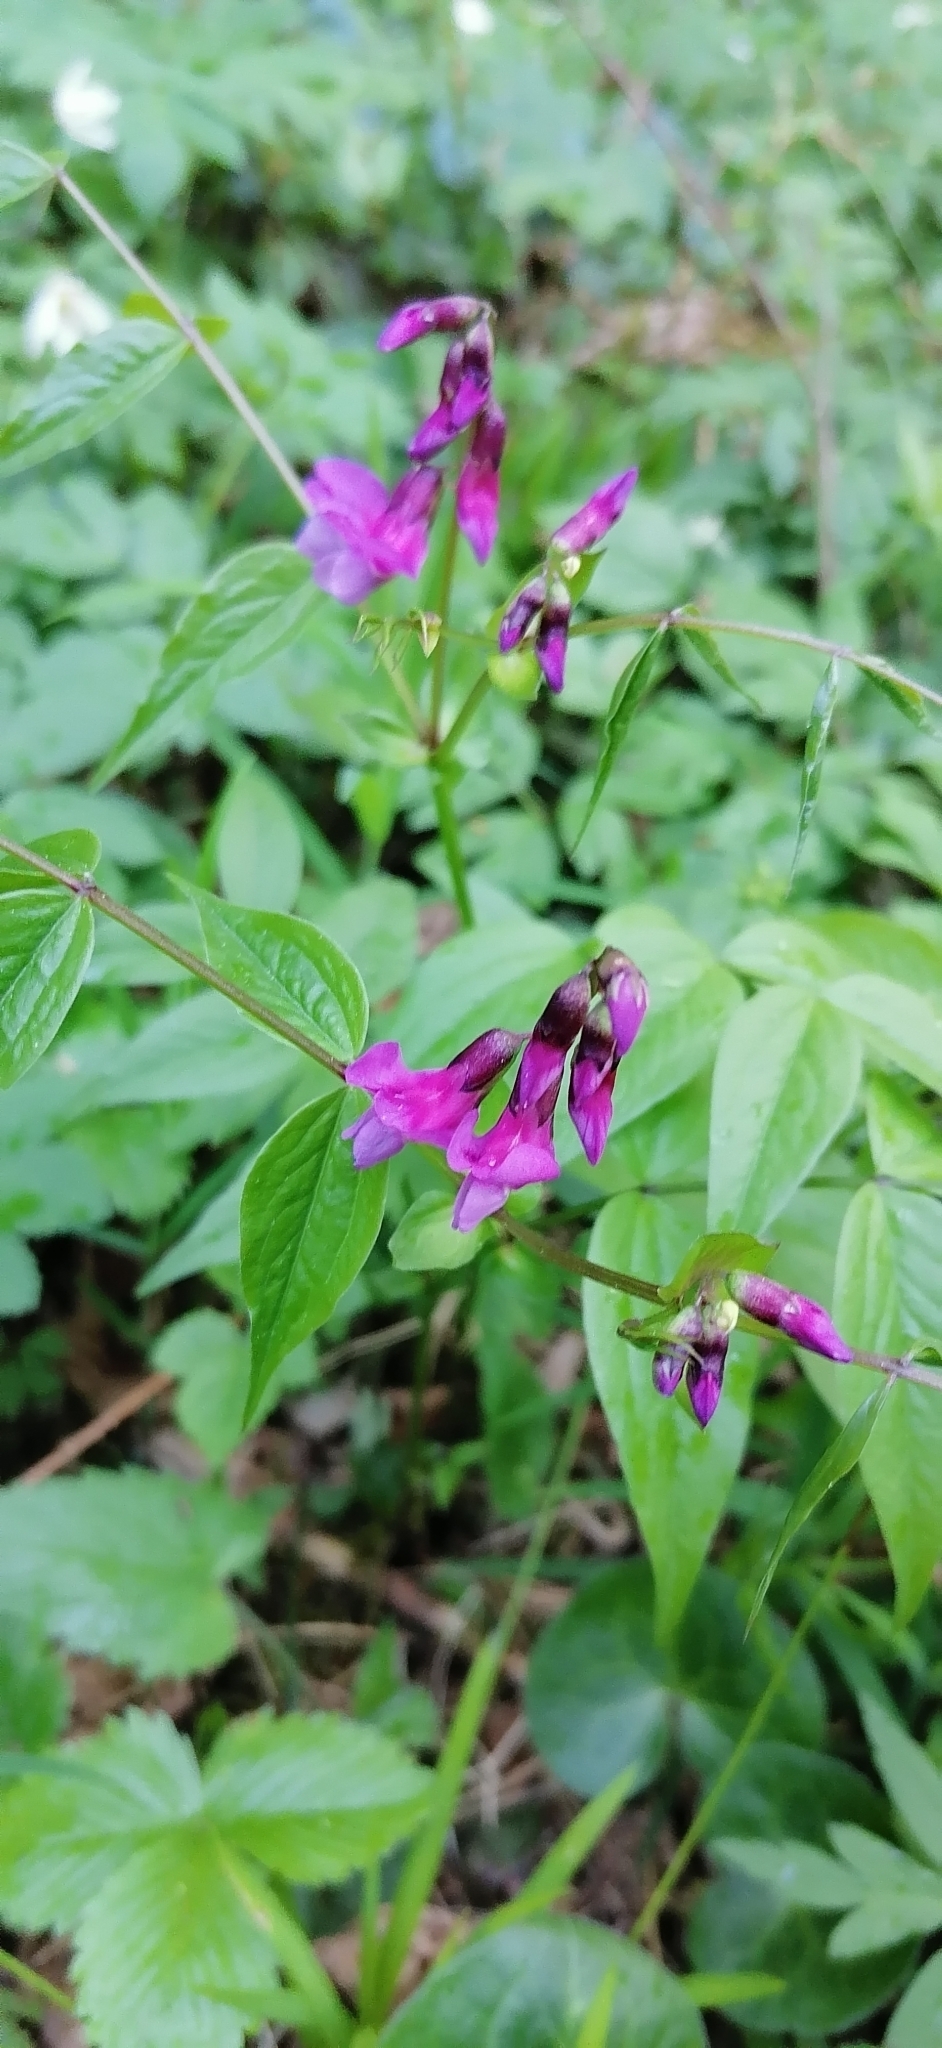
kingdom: Plantae
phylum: Tracheophyta
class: Magnoliopsida
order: Fabales
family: Fabaceae
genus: Lathyrus
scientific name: Lathyrus vernus
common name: Spring pea
